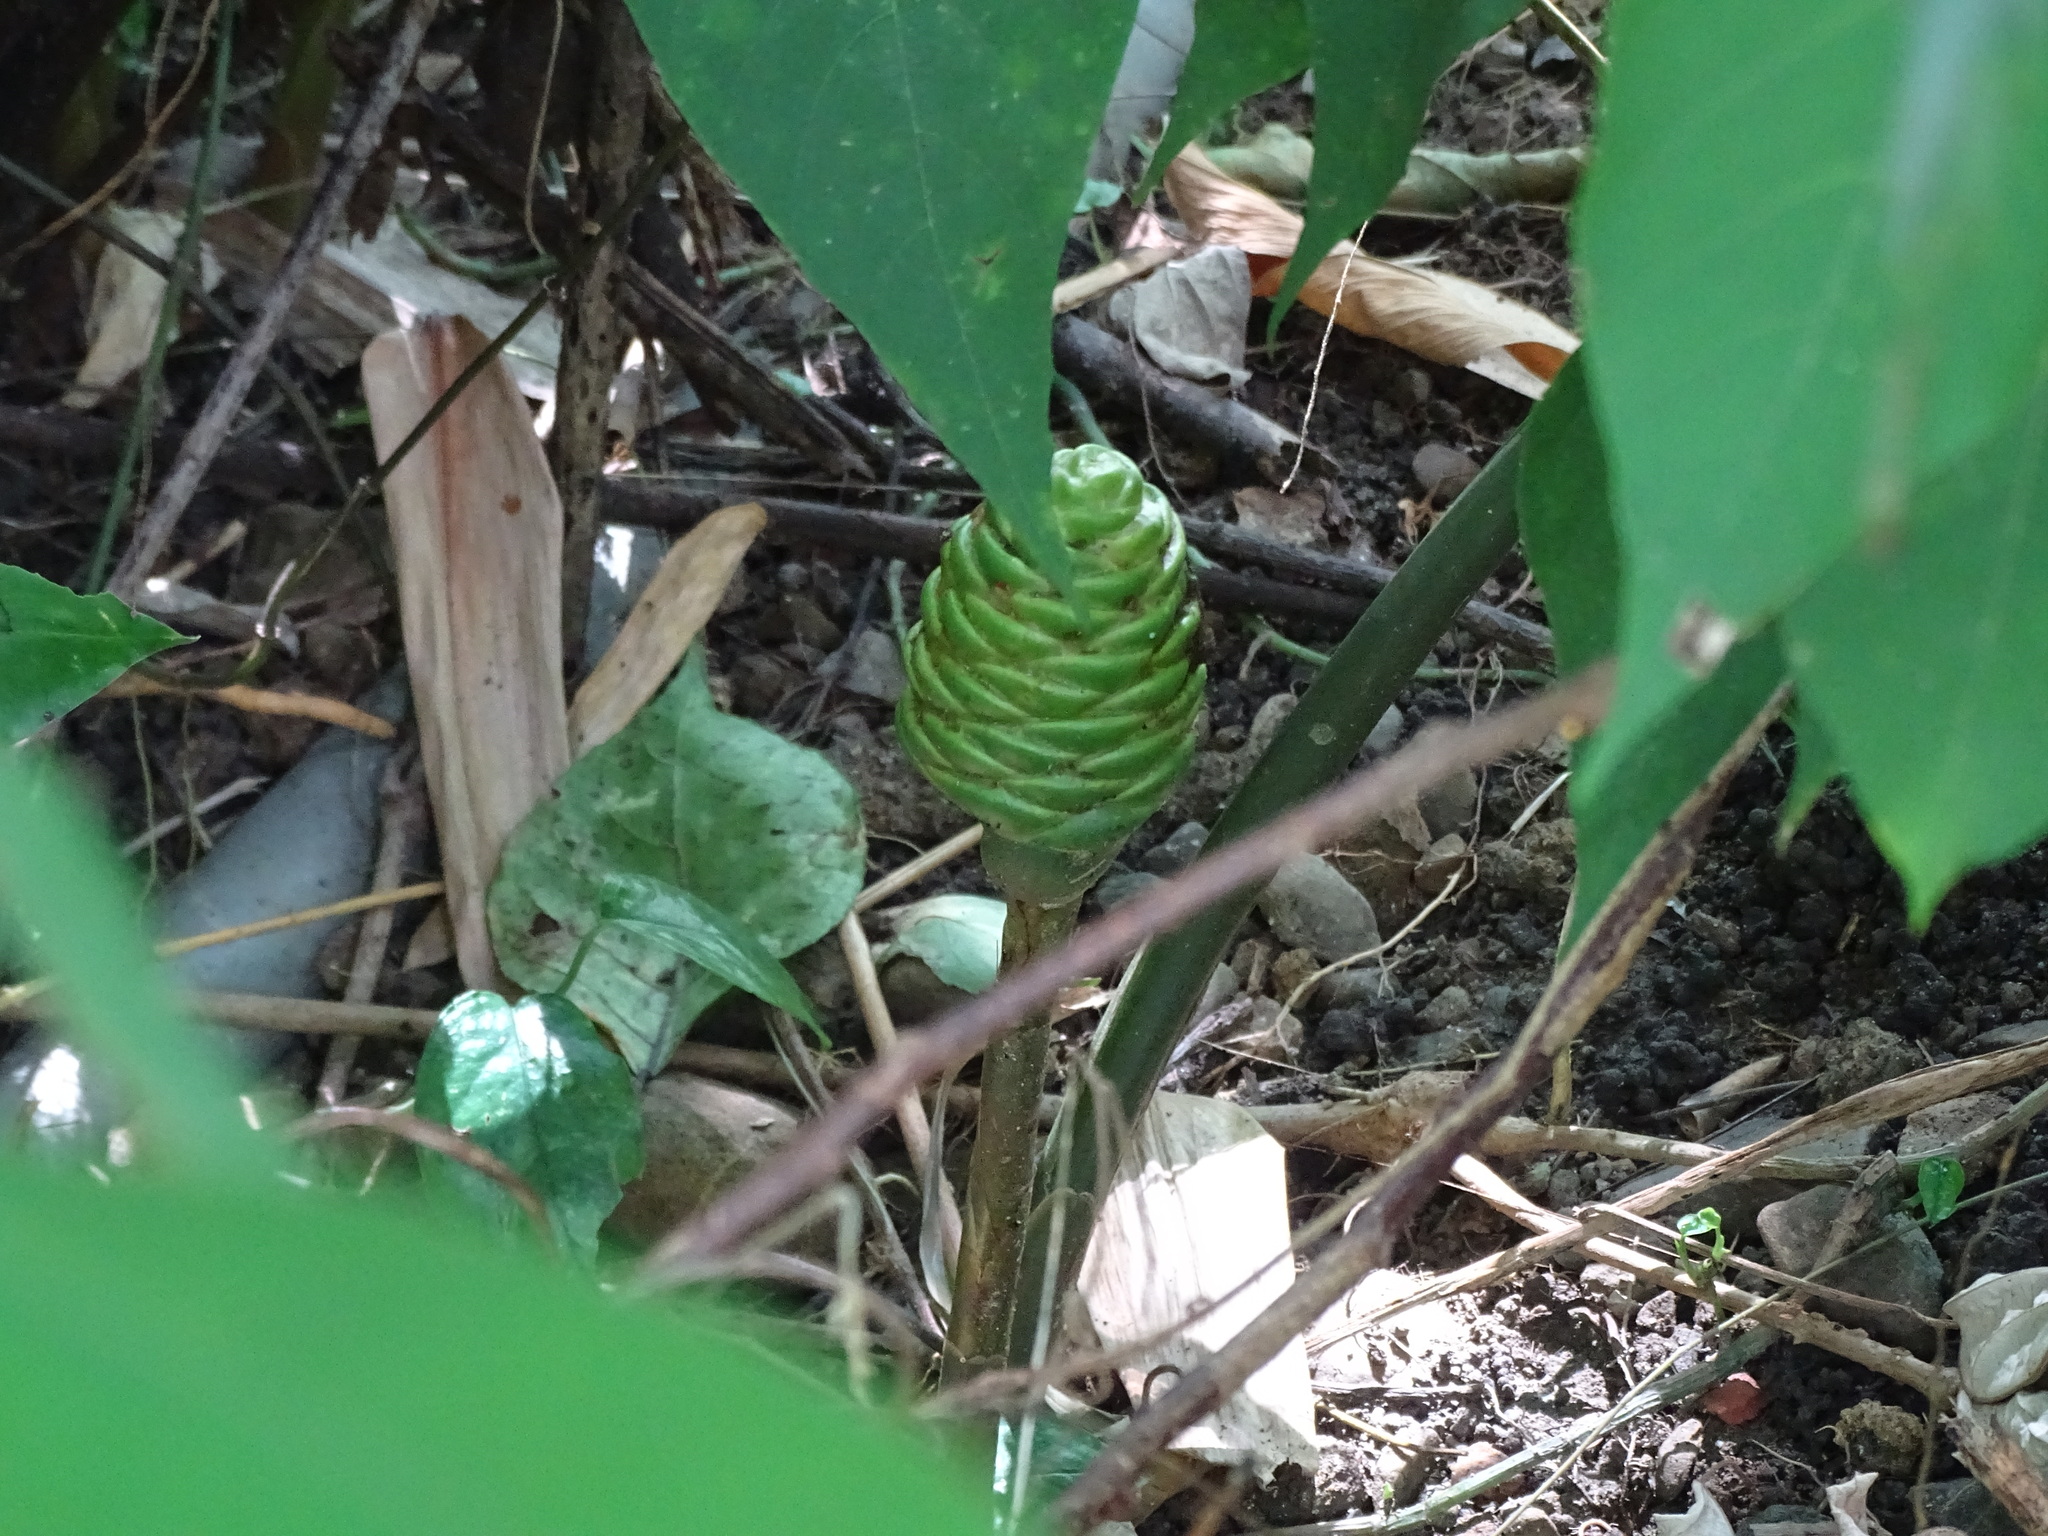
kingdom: Plantae
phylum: Tracheophyta
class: Liliopsida
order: Zingiberales
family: Zingiberaceae
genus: Zingiber
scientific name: Zingiber zerumbet
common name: Bitter ginger
